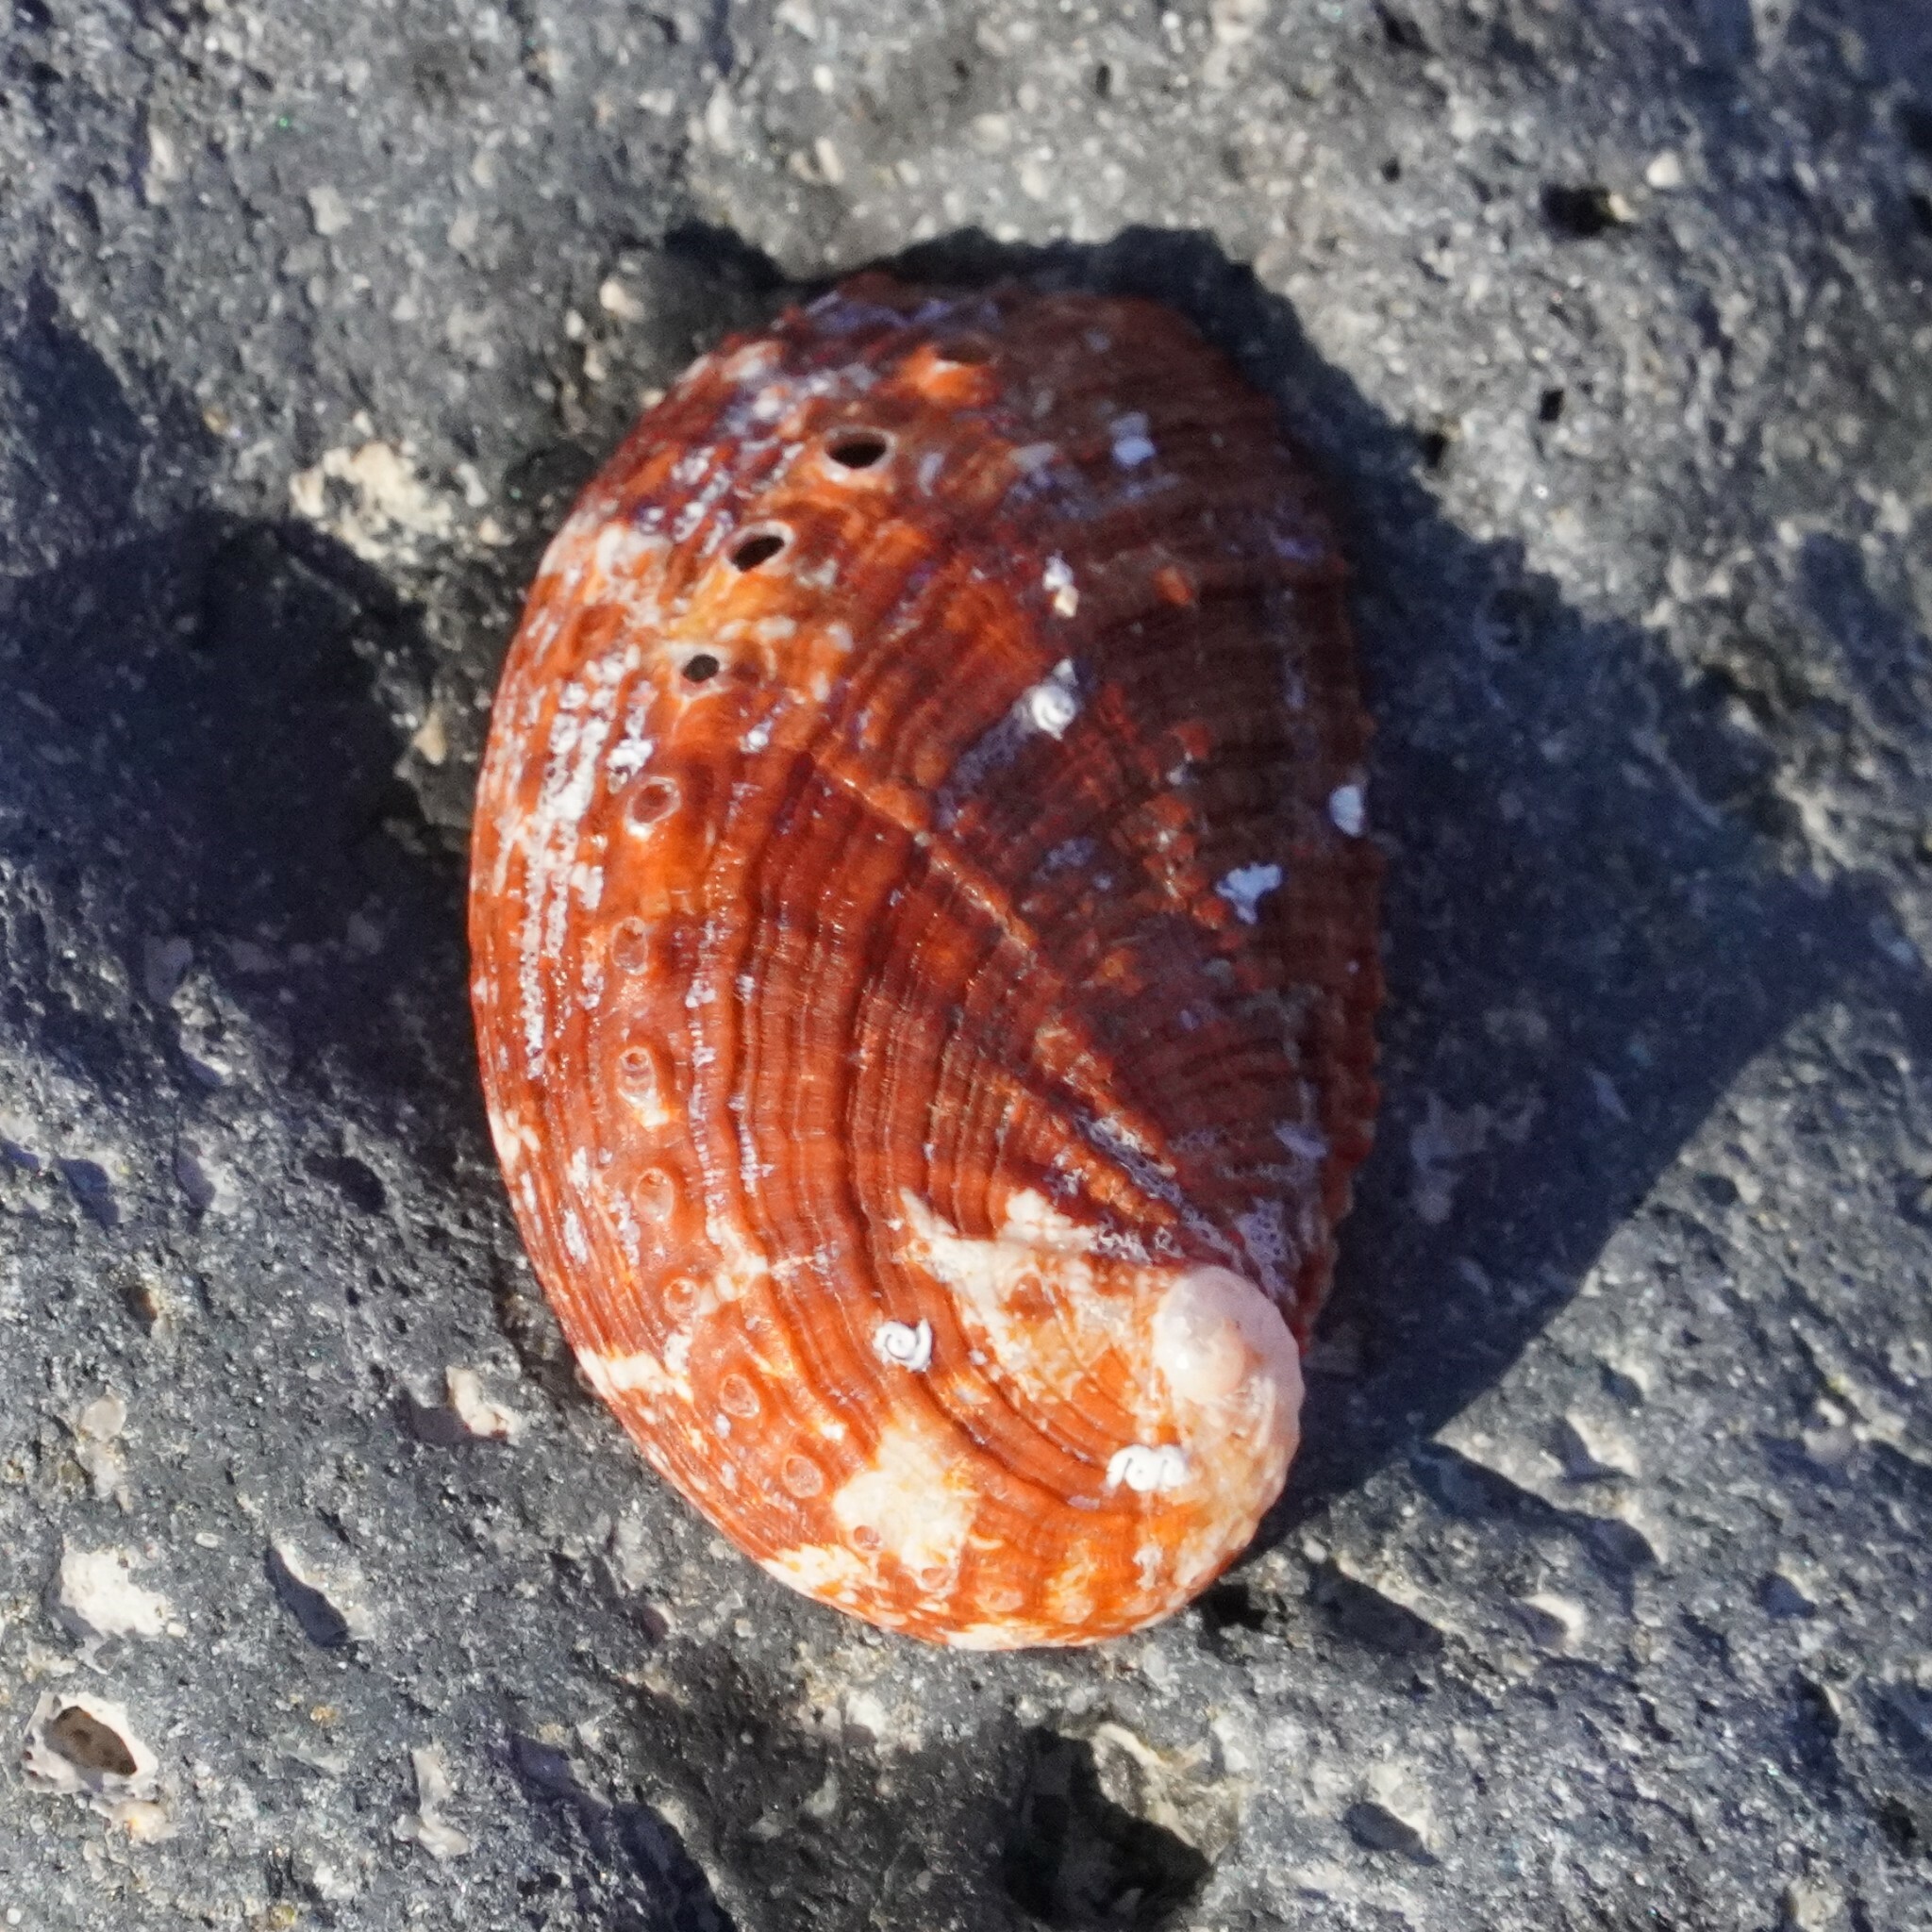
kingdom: Animalia
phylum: Mollusca
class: Gastropoda
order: Lepetellida
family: Haliotidae
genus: Haliotis
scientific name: Haliotis tuberculata
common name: Green ormer
